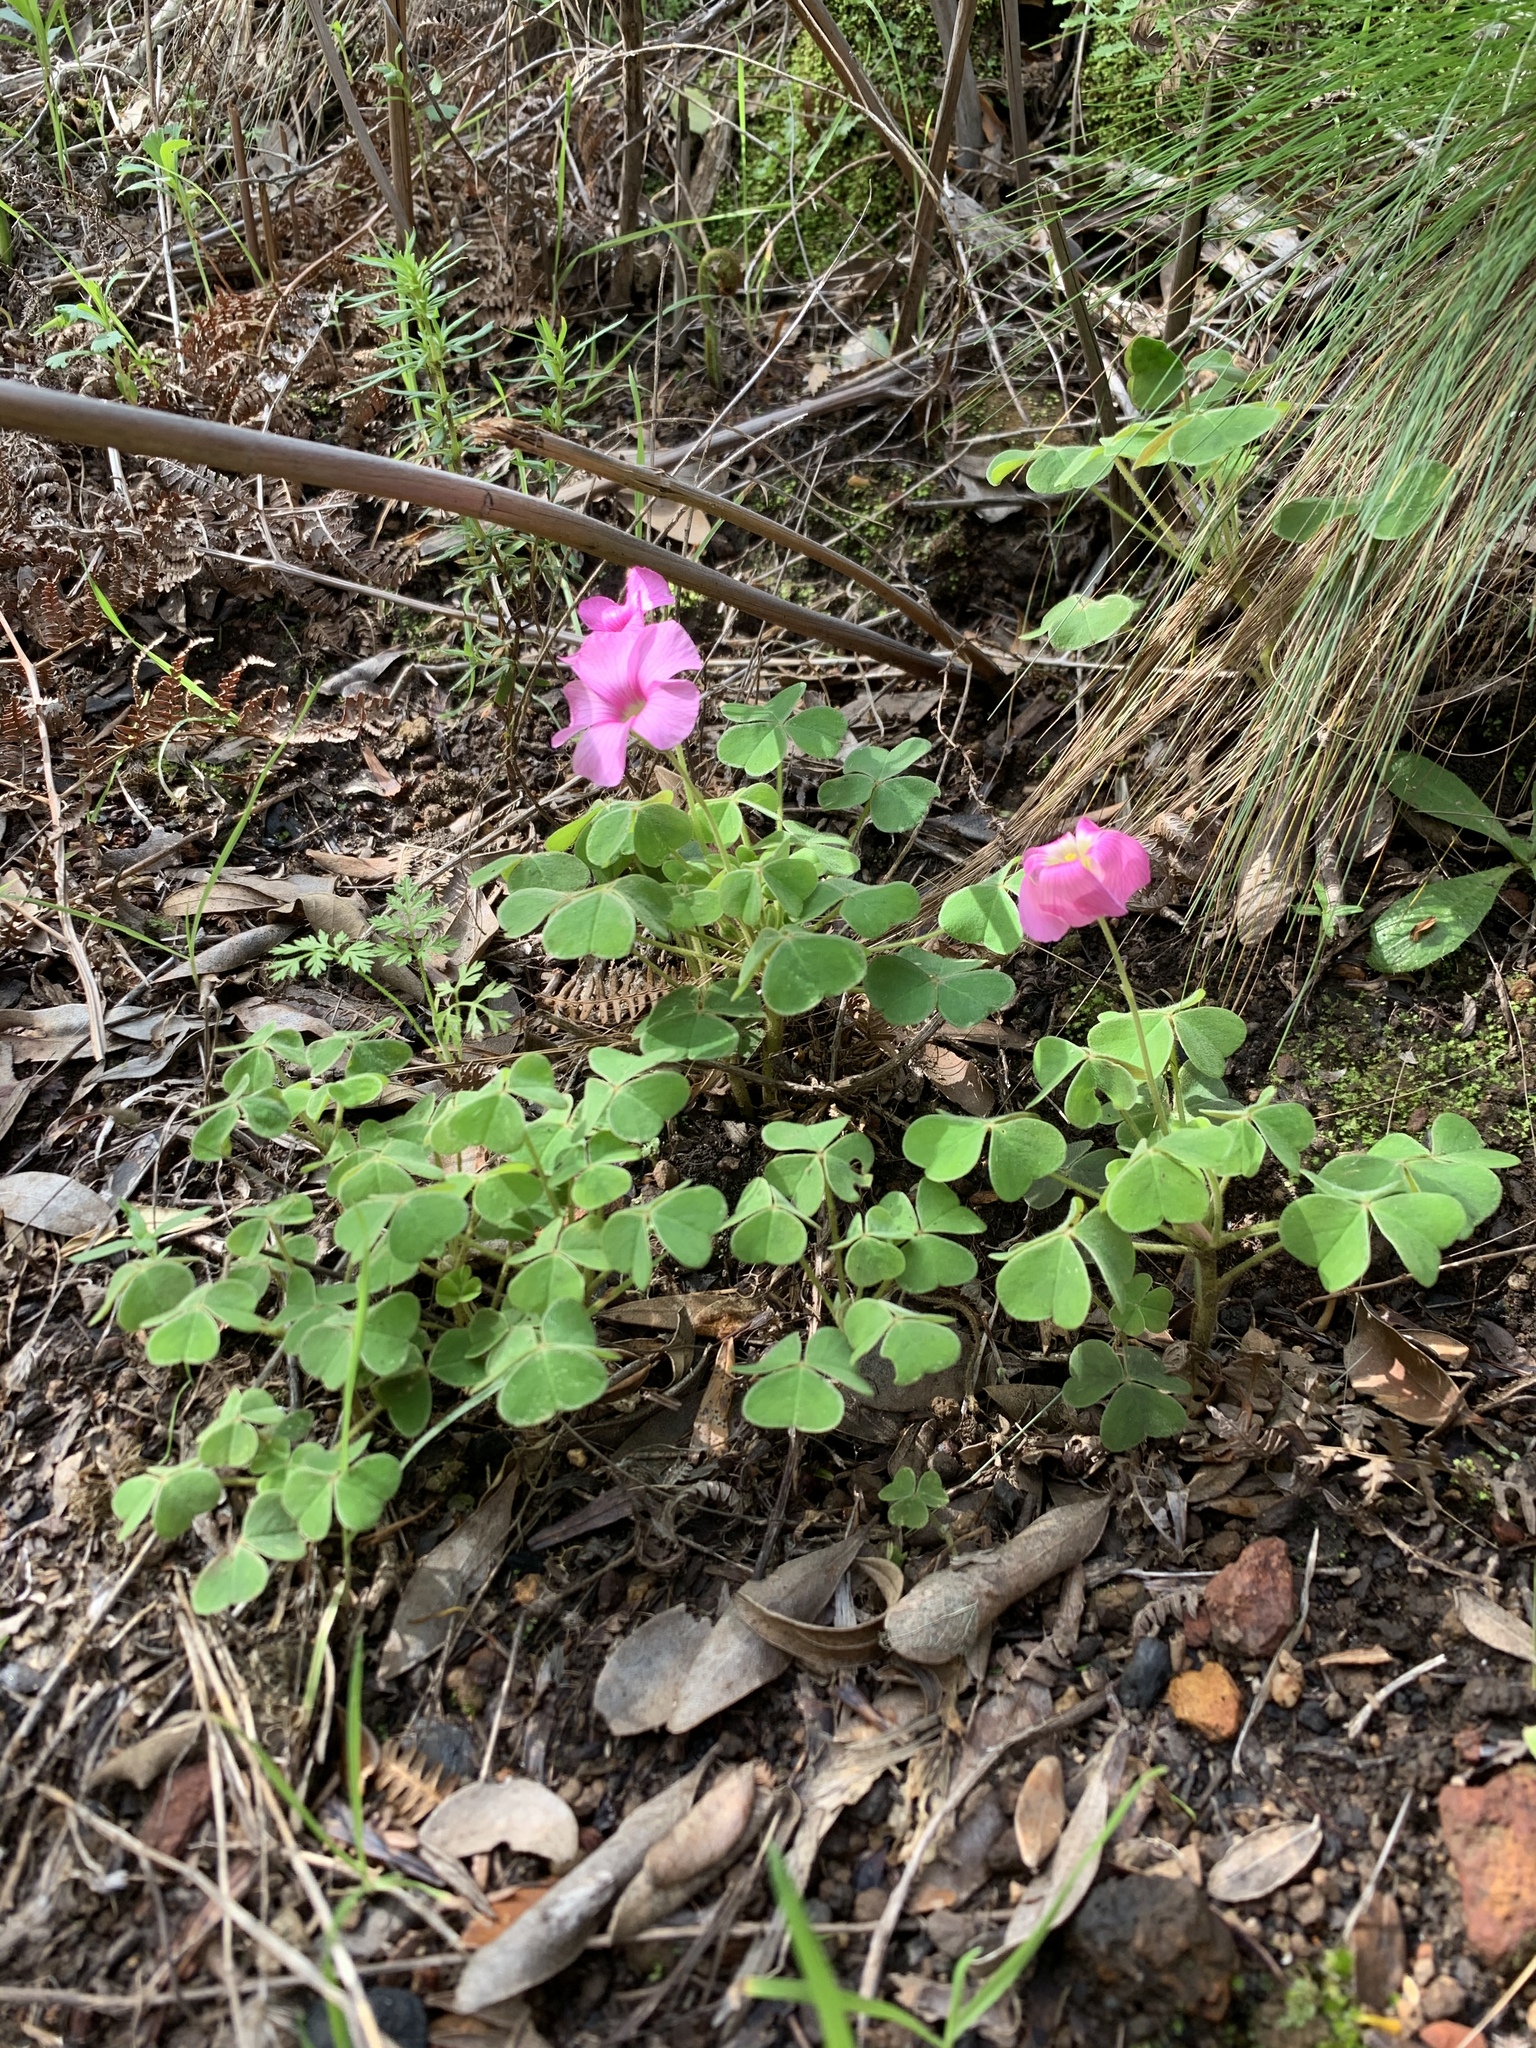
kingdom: Plantae
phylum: Tracheophyta
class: Magnoliopsida
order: Oxalidales
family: Oxalidaceae
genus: Oxalis
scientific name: Oxalis lanata
